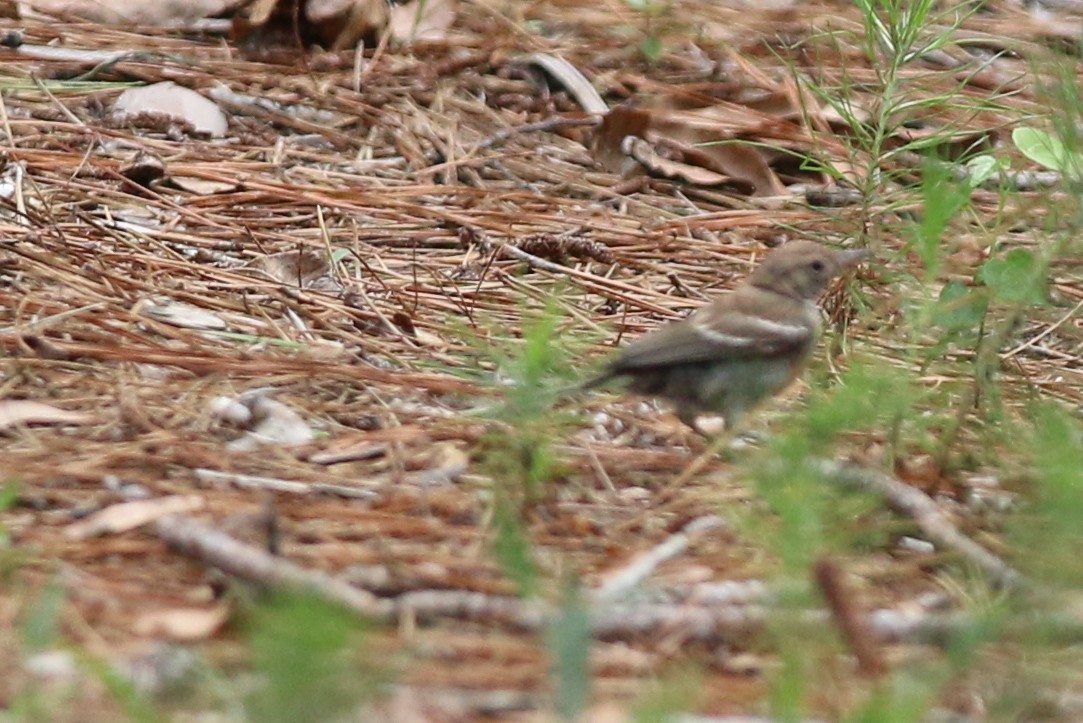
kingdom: Animalia
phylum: Chordata
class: Aves
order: Passeriformes
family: Parulidae
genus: Setophaga
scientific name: Setophaga pinus
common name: Pine warbler
